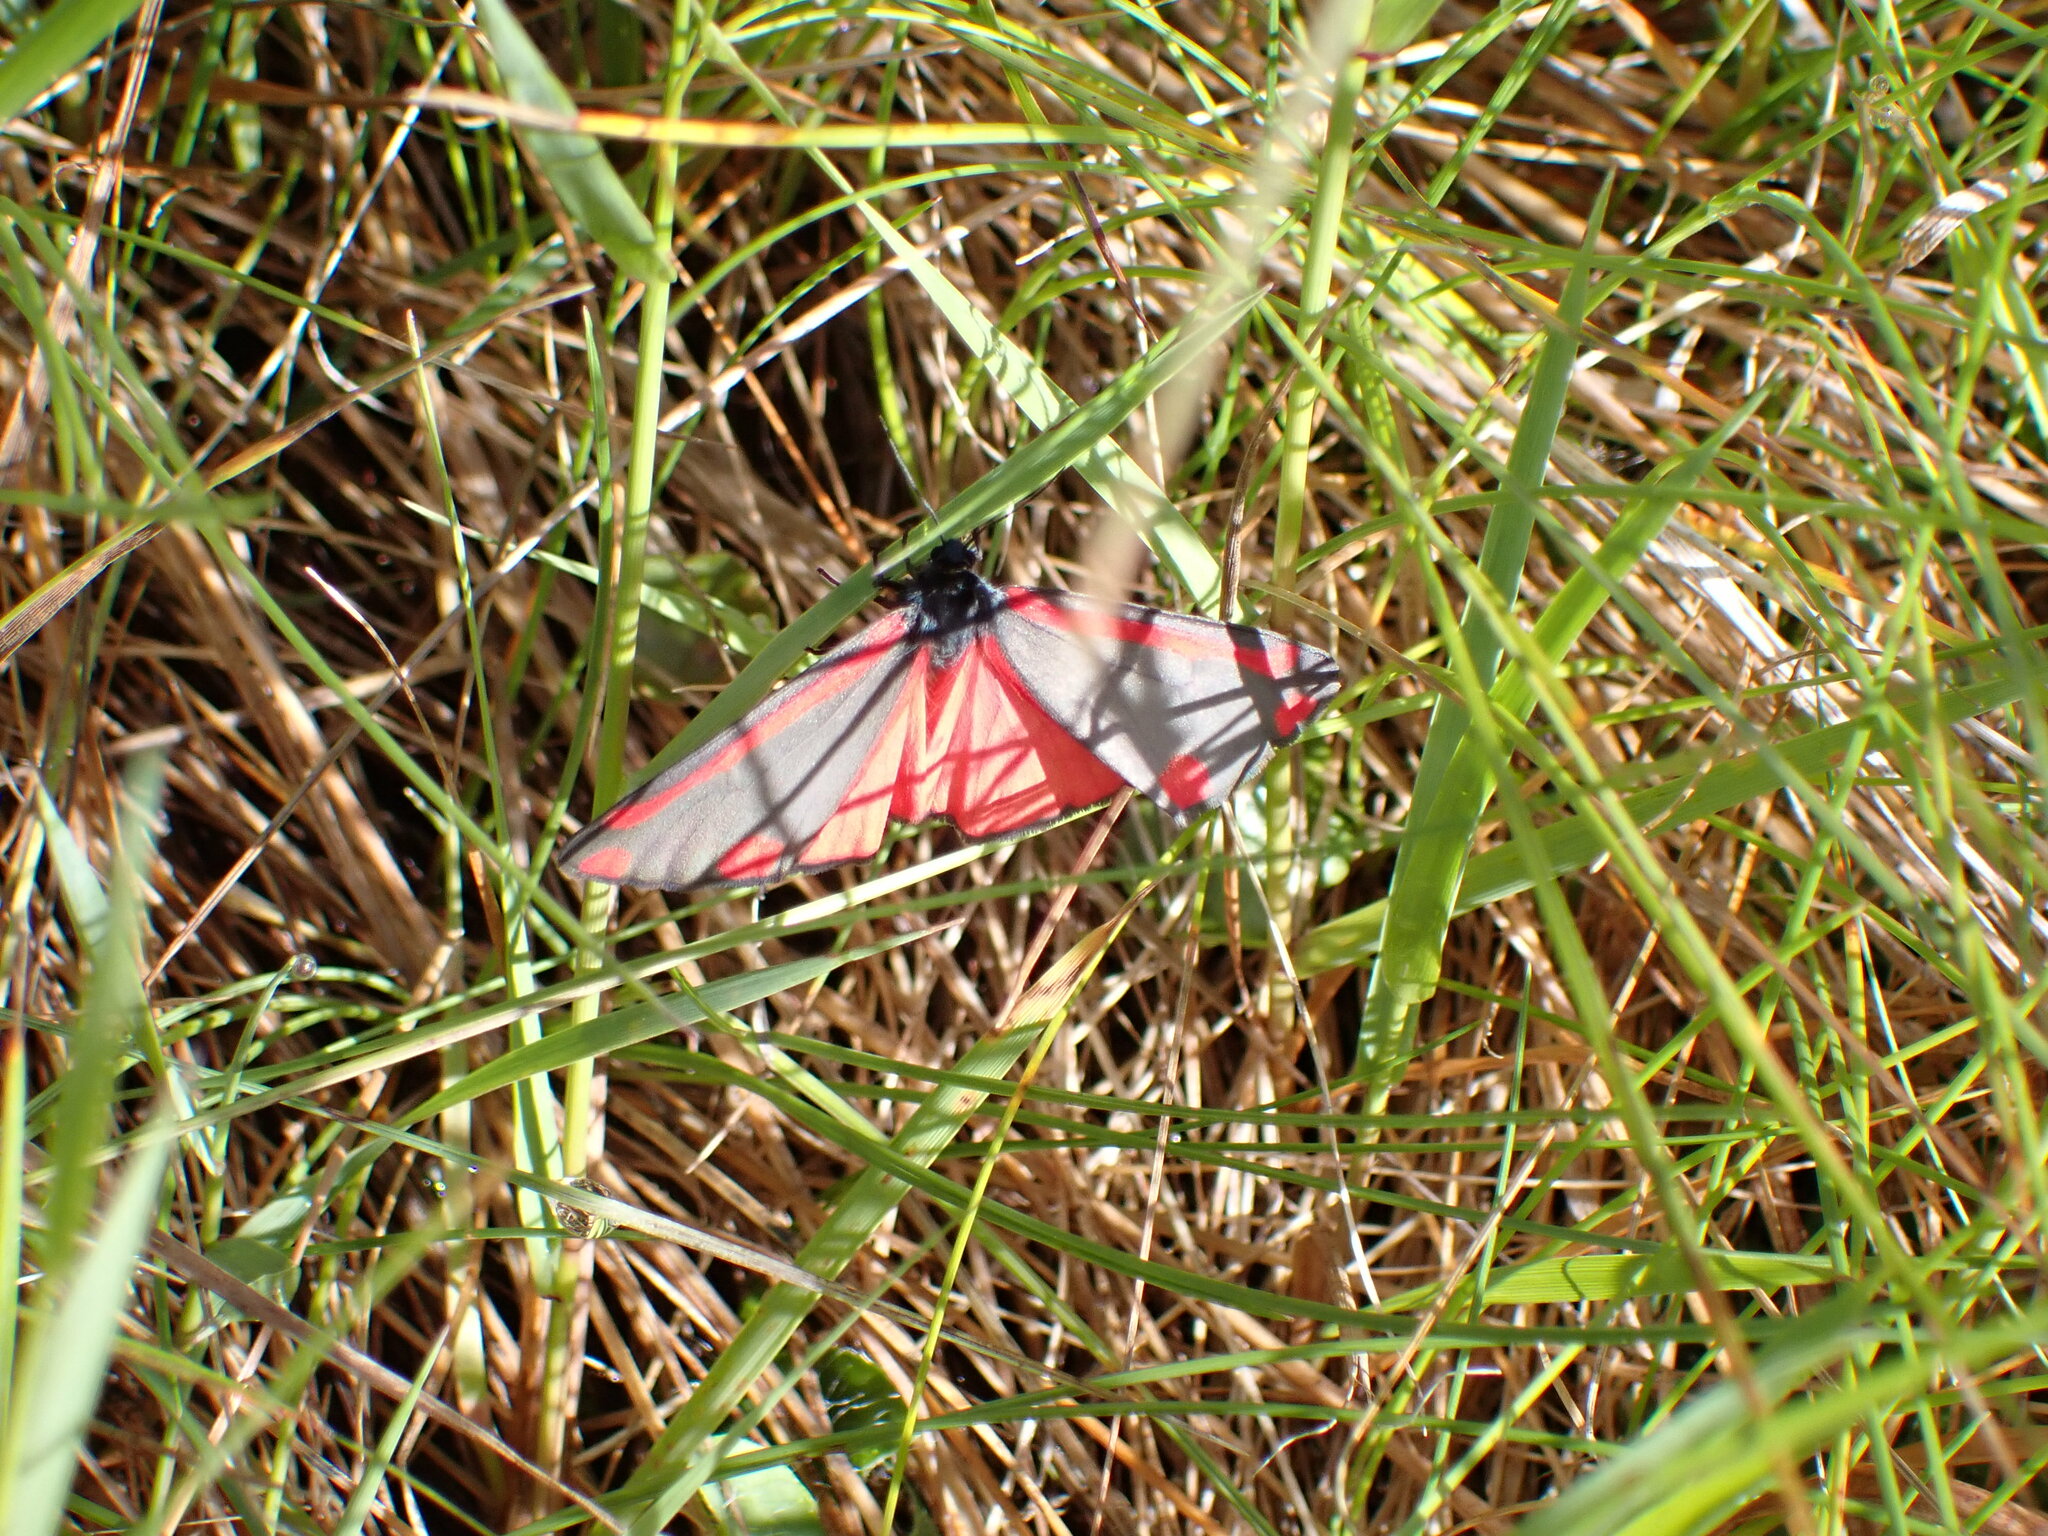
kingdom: Animalia
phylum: Arthropoda
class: Insecta
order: Lepidoptera
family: Erebidae
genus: Tyria
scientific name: Tyria jacobaeae
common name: Cinnabar
